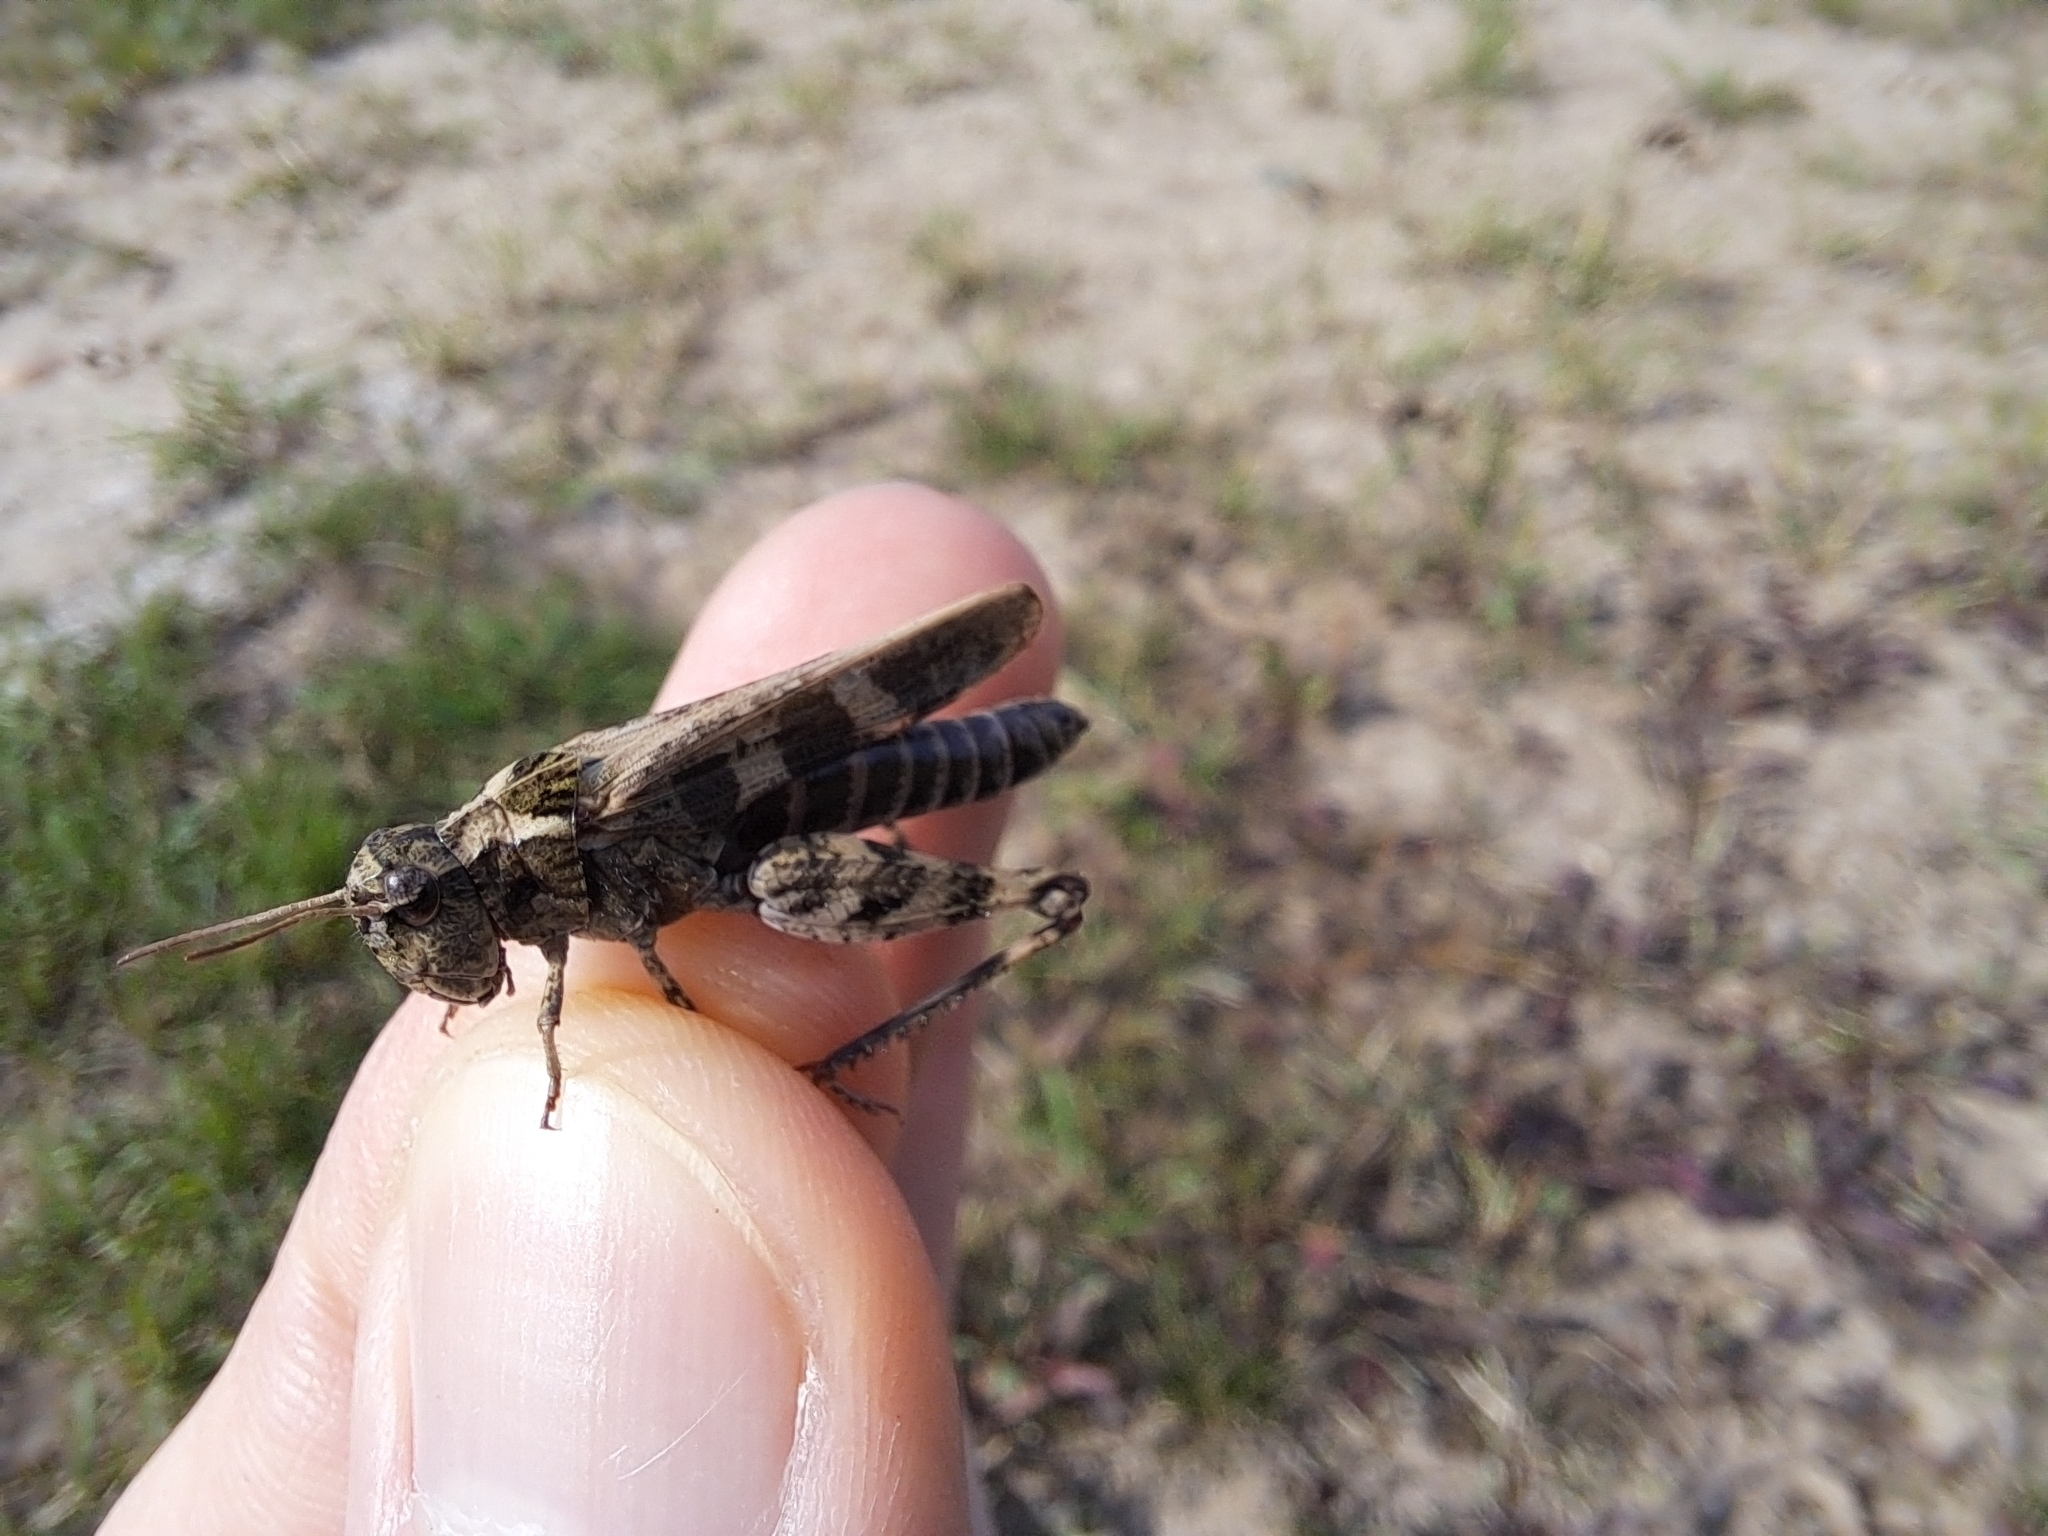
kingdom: Animalia
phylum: Arthropoda
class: Insecta
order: Orthoptera
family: Acrididae
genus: Encoptolophus
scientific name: Encoptolophus costalis
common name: Dusky grasshopper
